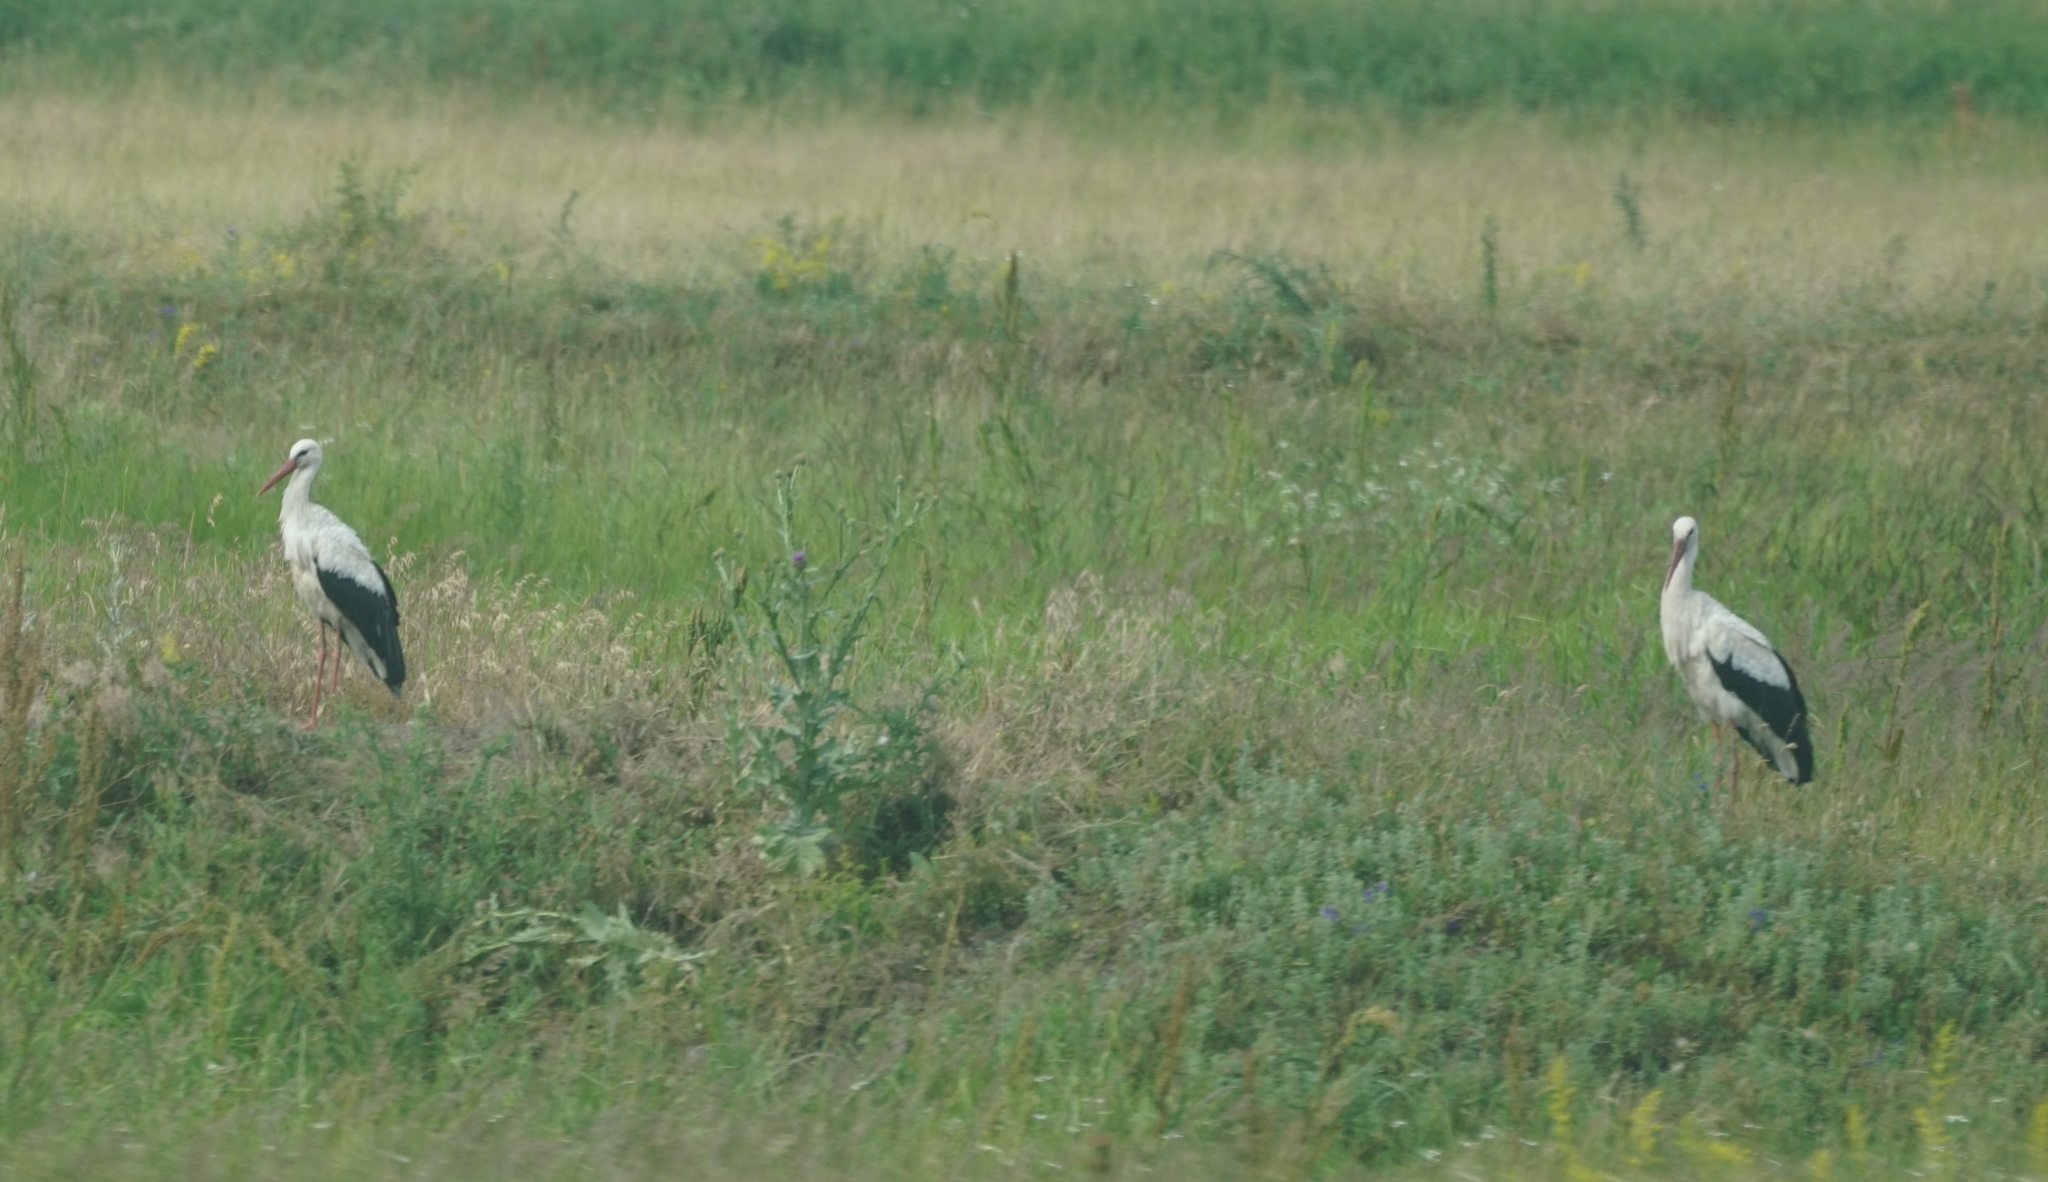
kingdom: Animalia
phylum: Chordata
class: Aves
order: Ciconiiformes
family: Ciconiidae
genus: Ciconia
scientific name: Ciconia ciconia
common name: White stork
